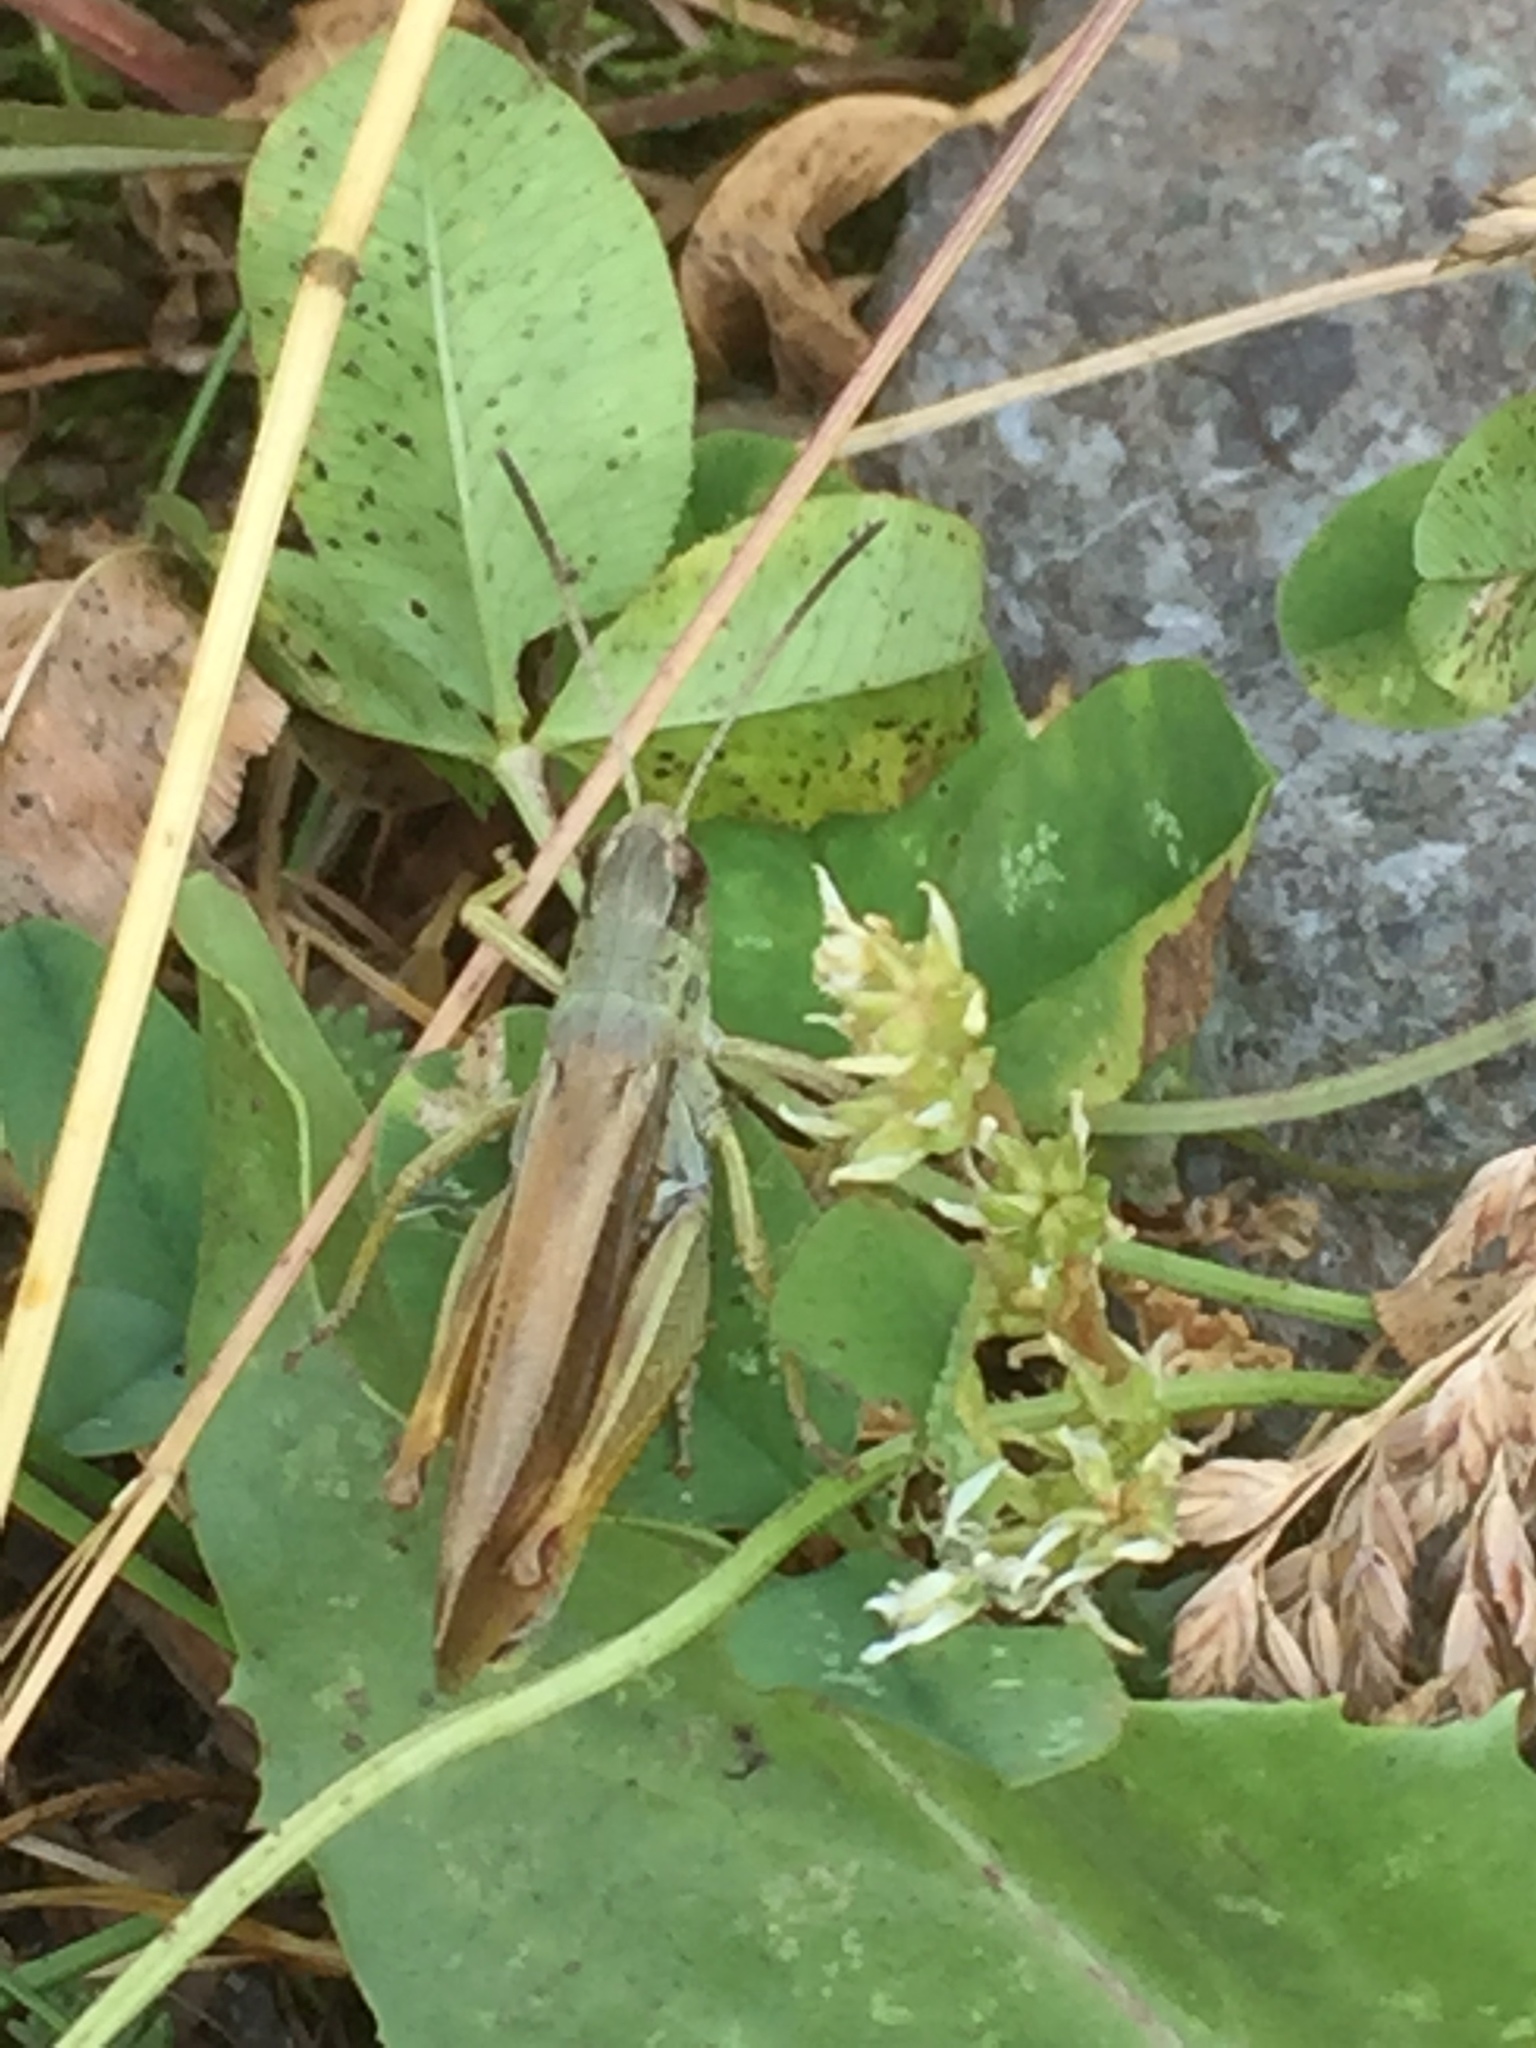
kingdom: Animalia
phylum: Arthropoda
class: Insecta
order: Orthoptera
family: Acrididae
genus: Stauroderus
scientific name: Stauroderus scalaris
